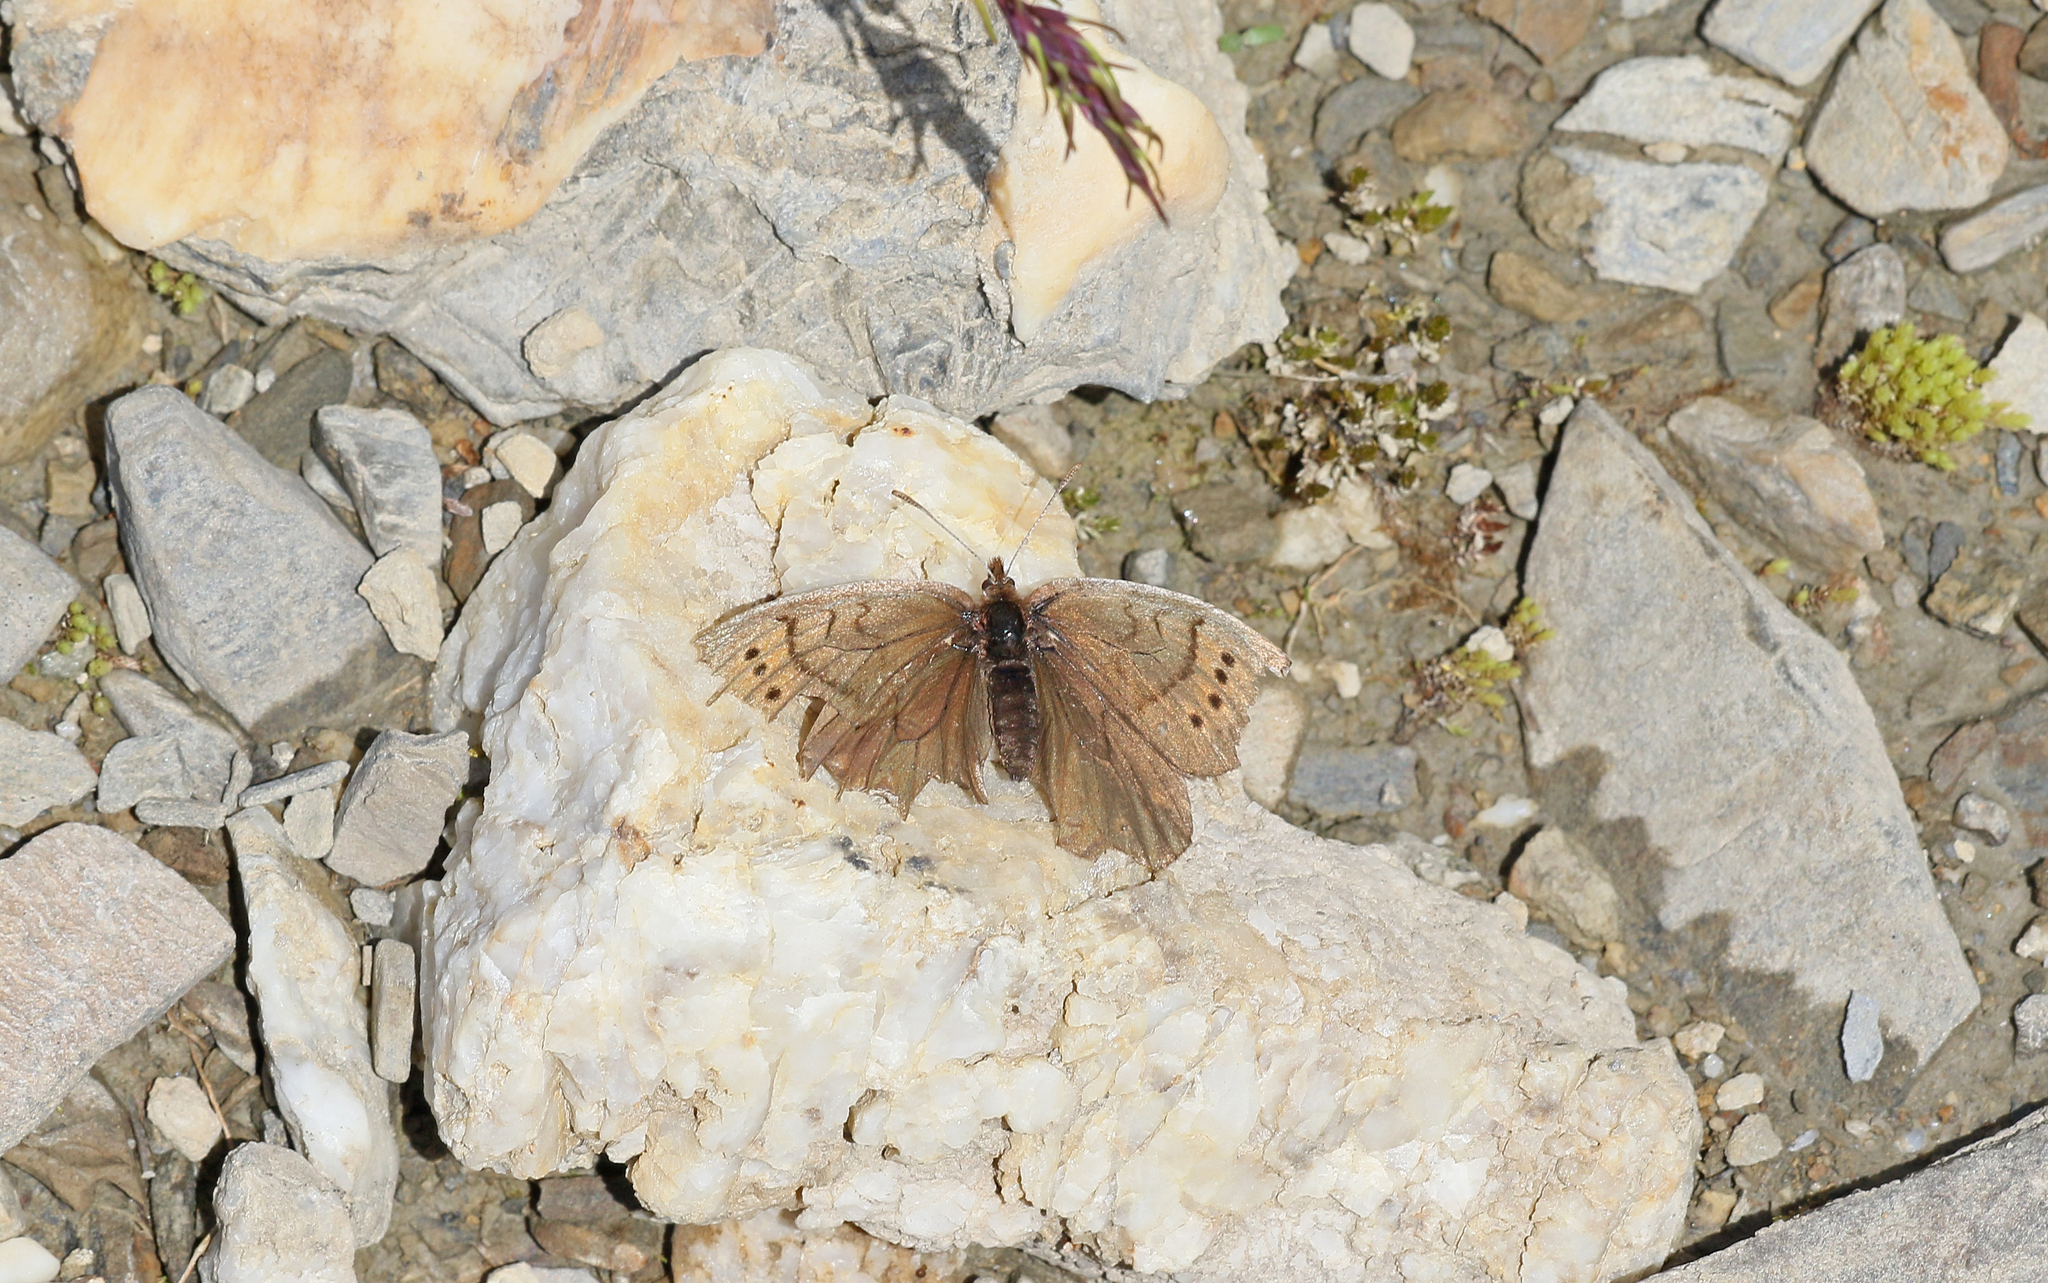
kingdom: Animalia
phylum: Arthropoda
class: Insecta
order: Lepidoptera
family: Nymphalidae
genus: Erebia
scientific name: Erebia pandrose
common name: Dewy ringlet
